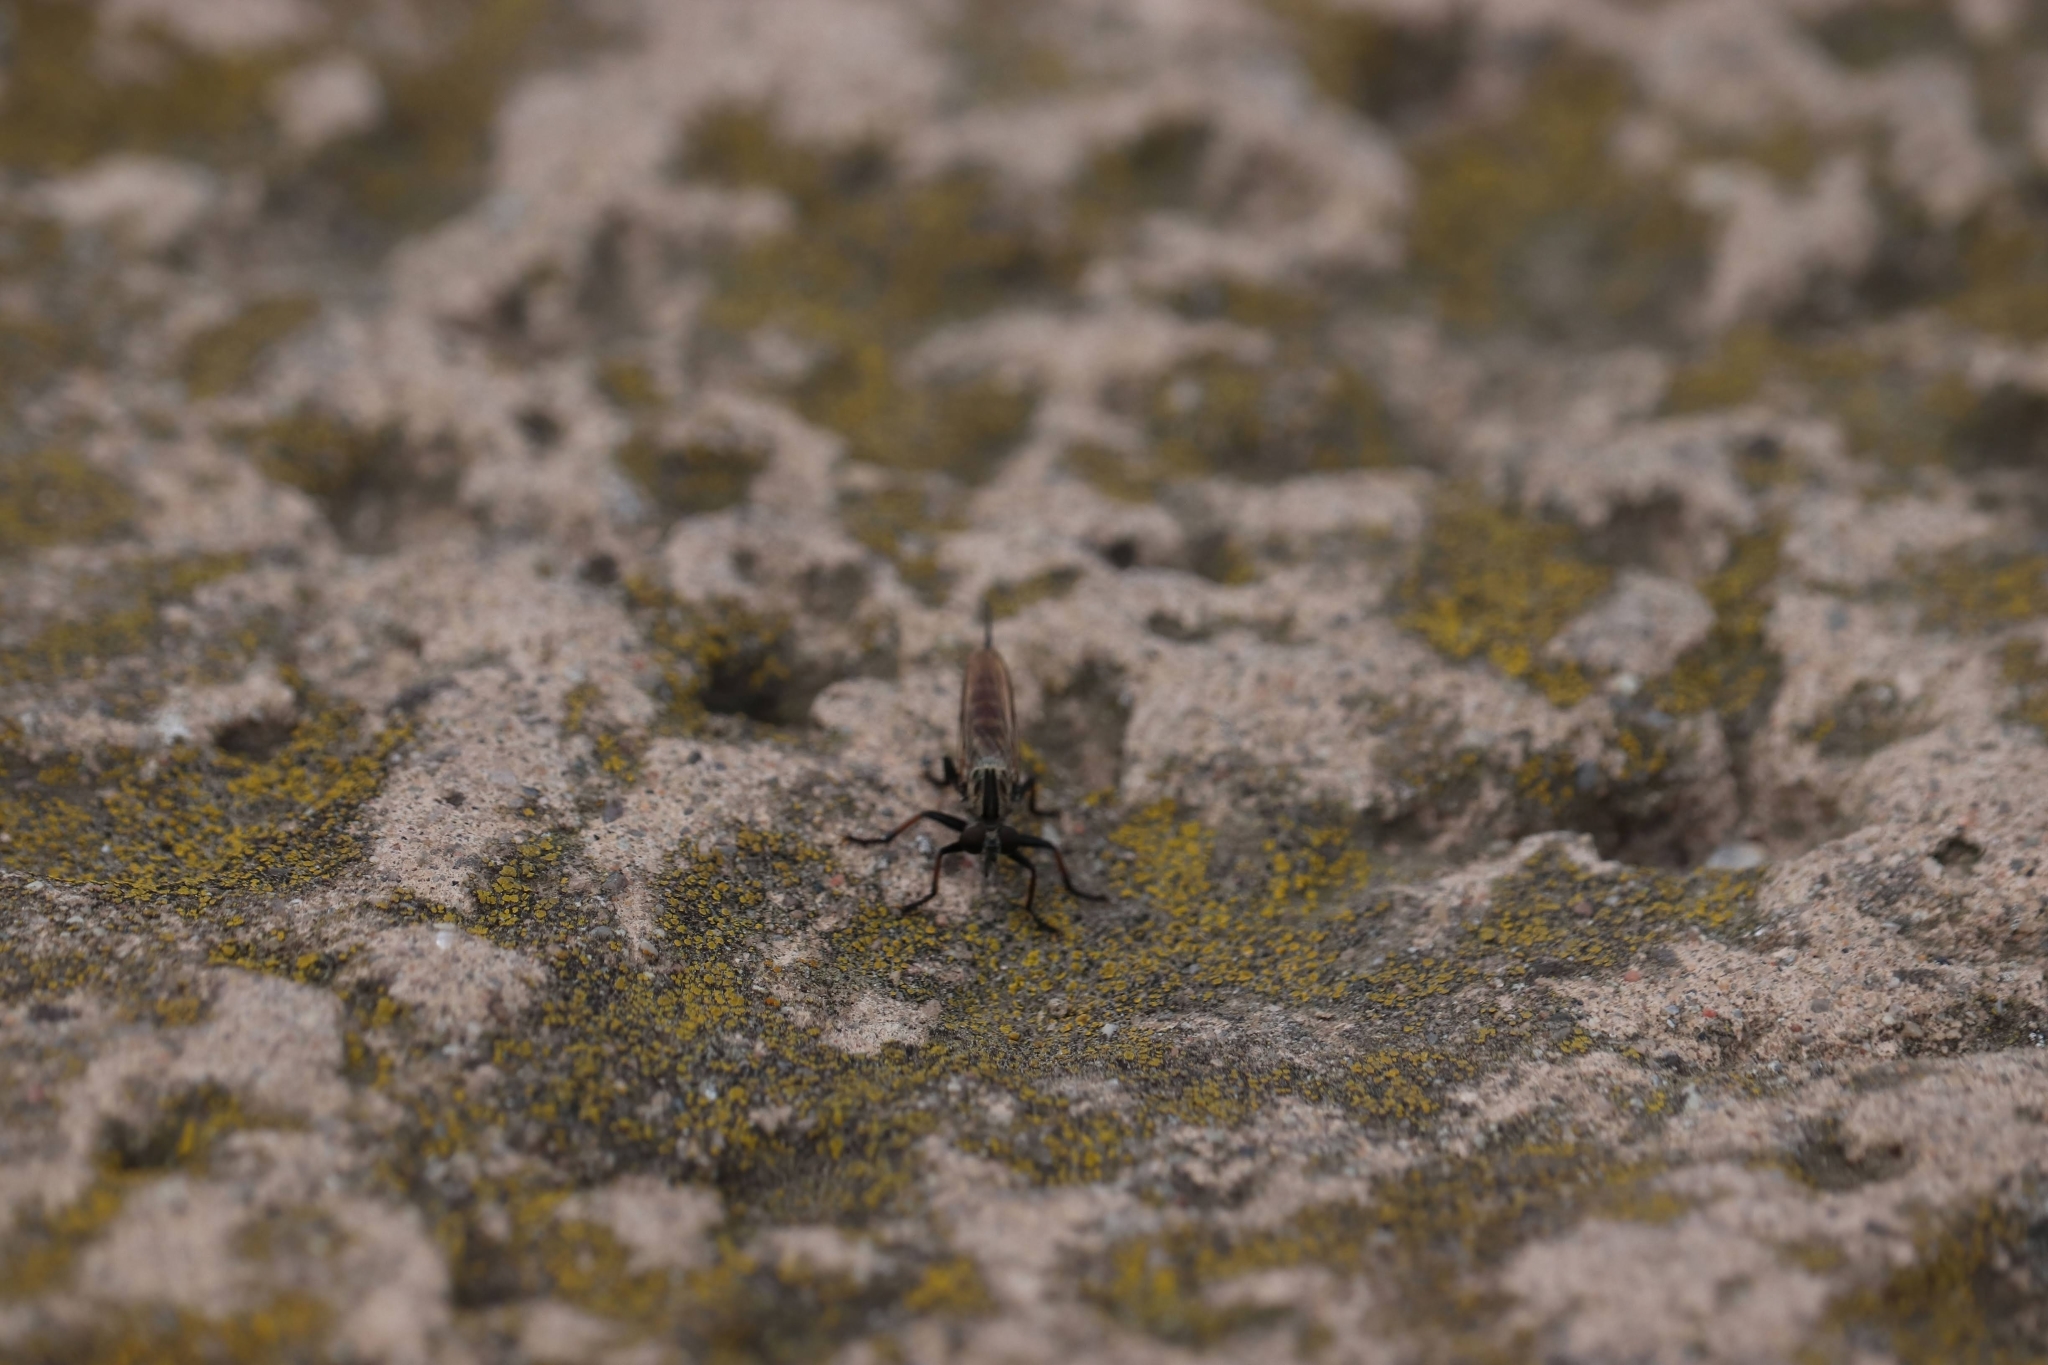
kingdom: Animalia
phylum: Arthropoda
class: Insecta
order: Diptera
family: Asilidae
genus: Efferia
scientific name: Efferia aestuans
